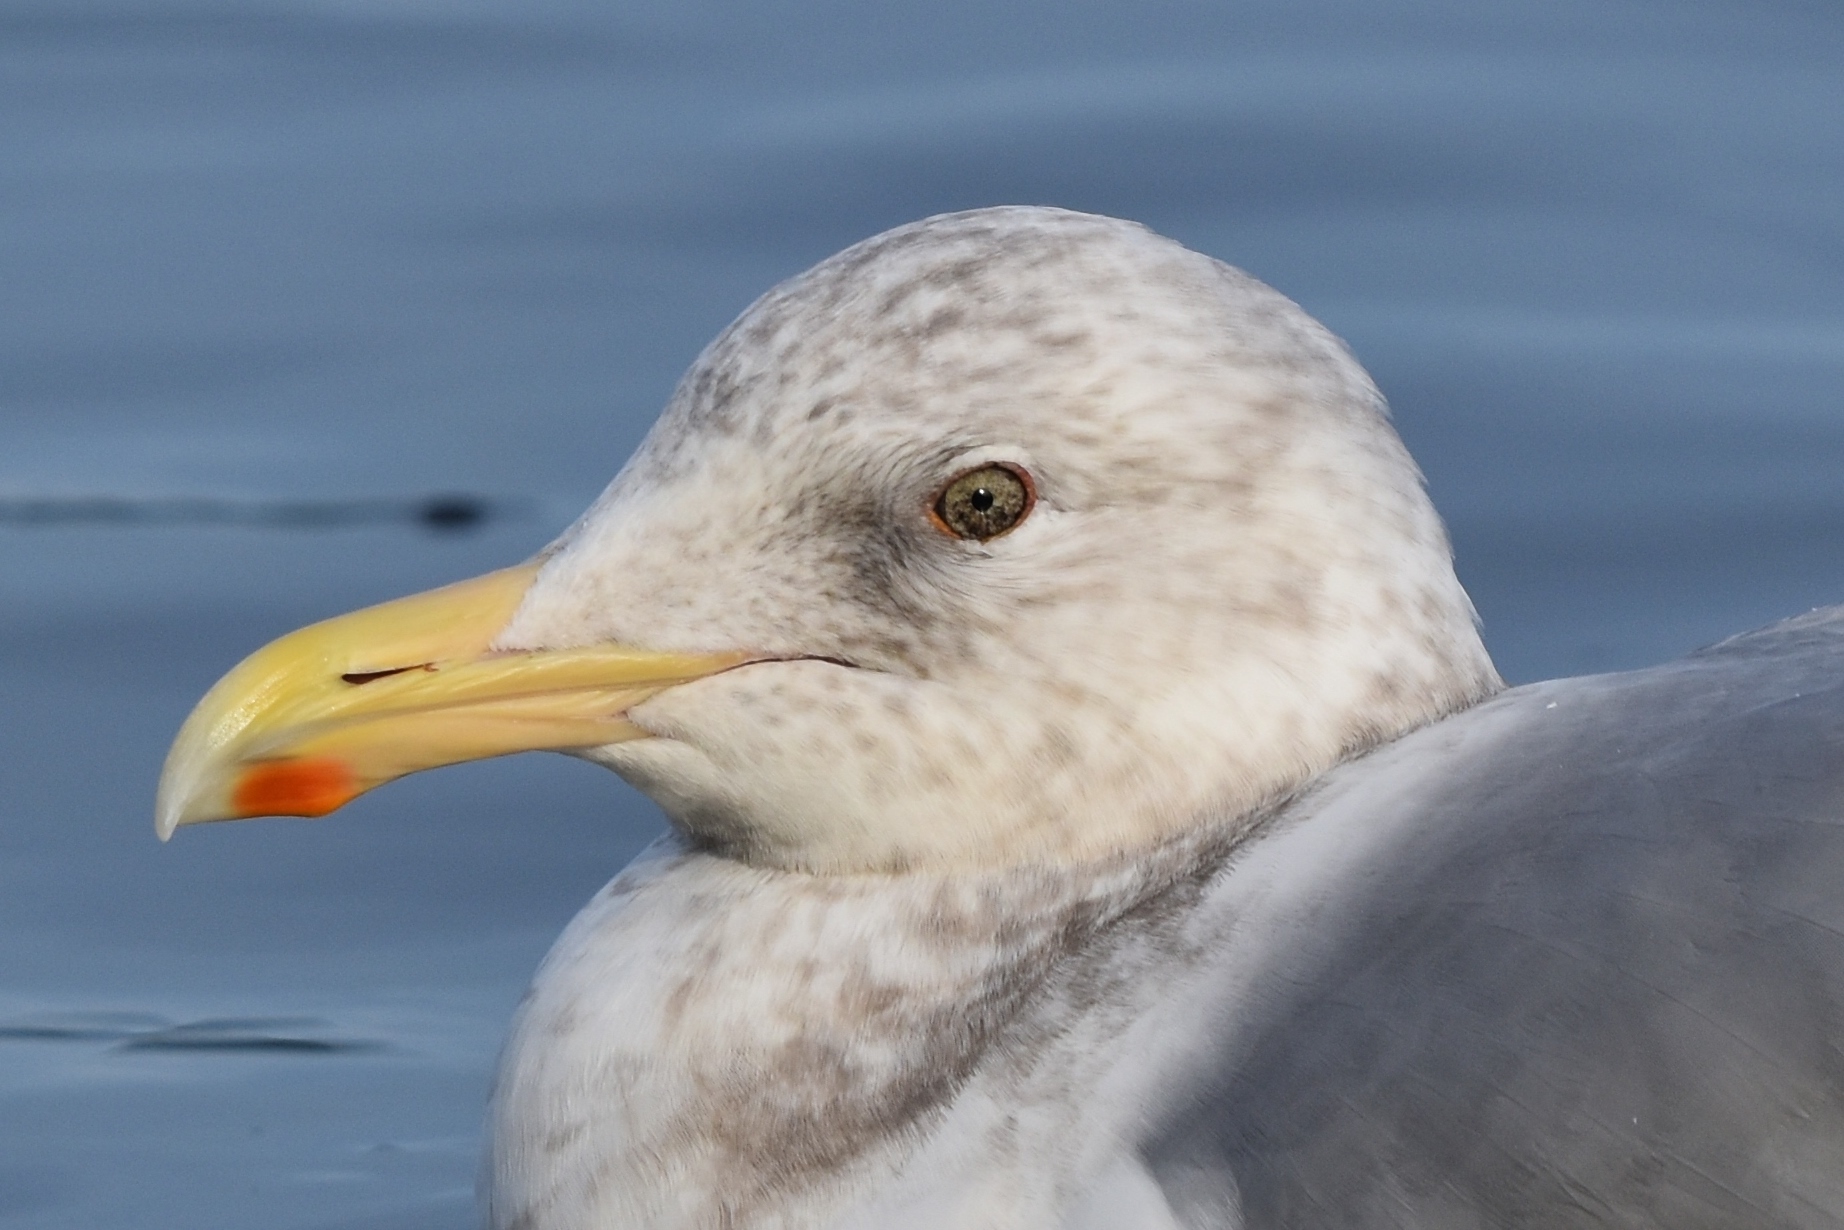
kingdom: Animalia
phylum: Chordata
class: Aves
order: Charadriiformes
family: Laridae
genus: Larus
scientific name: Larus
